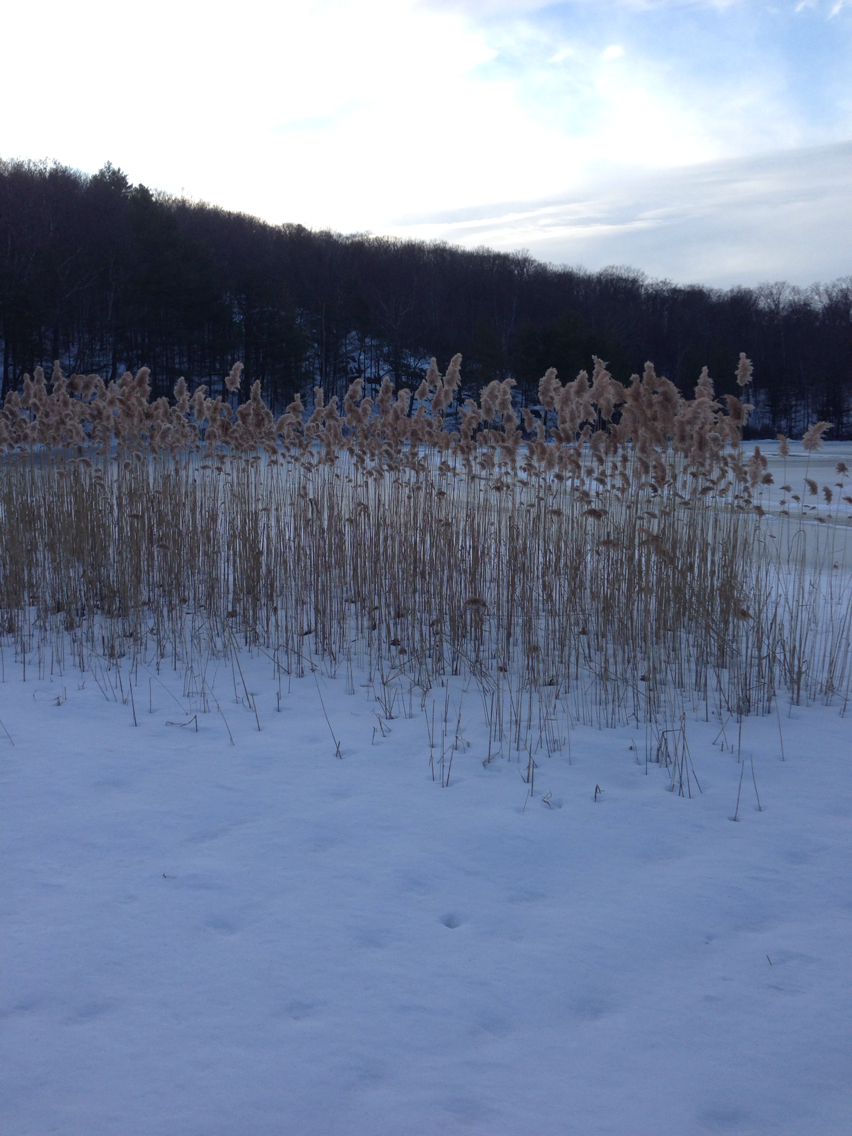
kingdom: Plantae
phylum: Tracheophyta
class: Liliopsida
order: Poales
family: Poaceae
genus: Phragmites
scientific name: Phragmites australis
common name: Common reed
